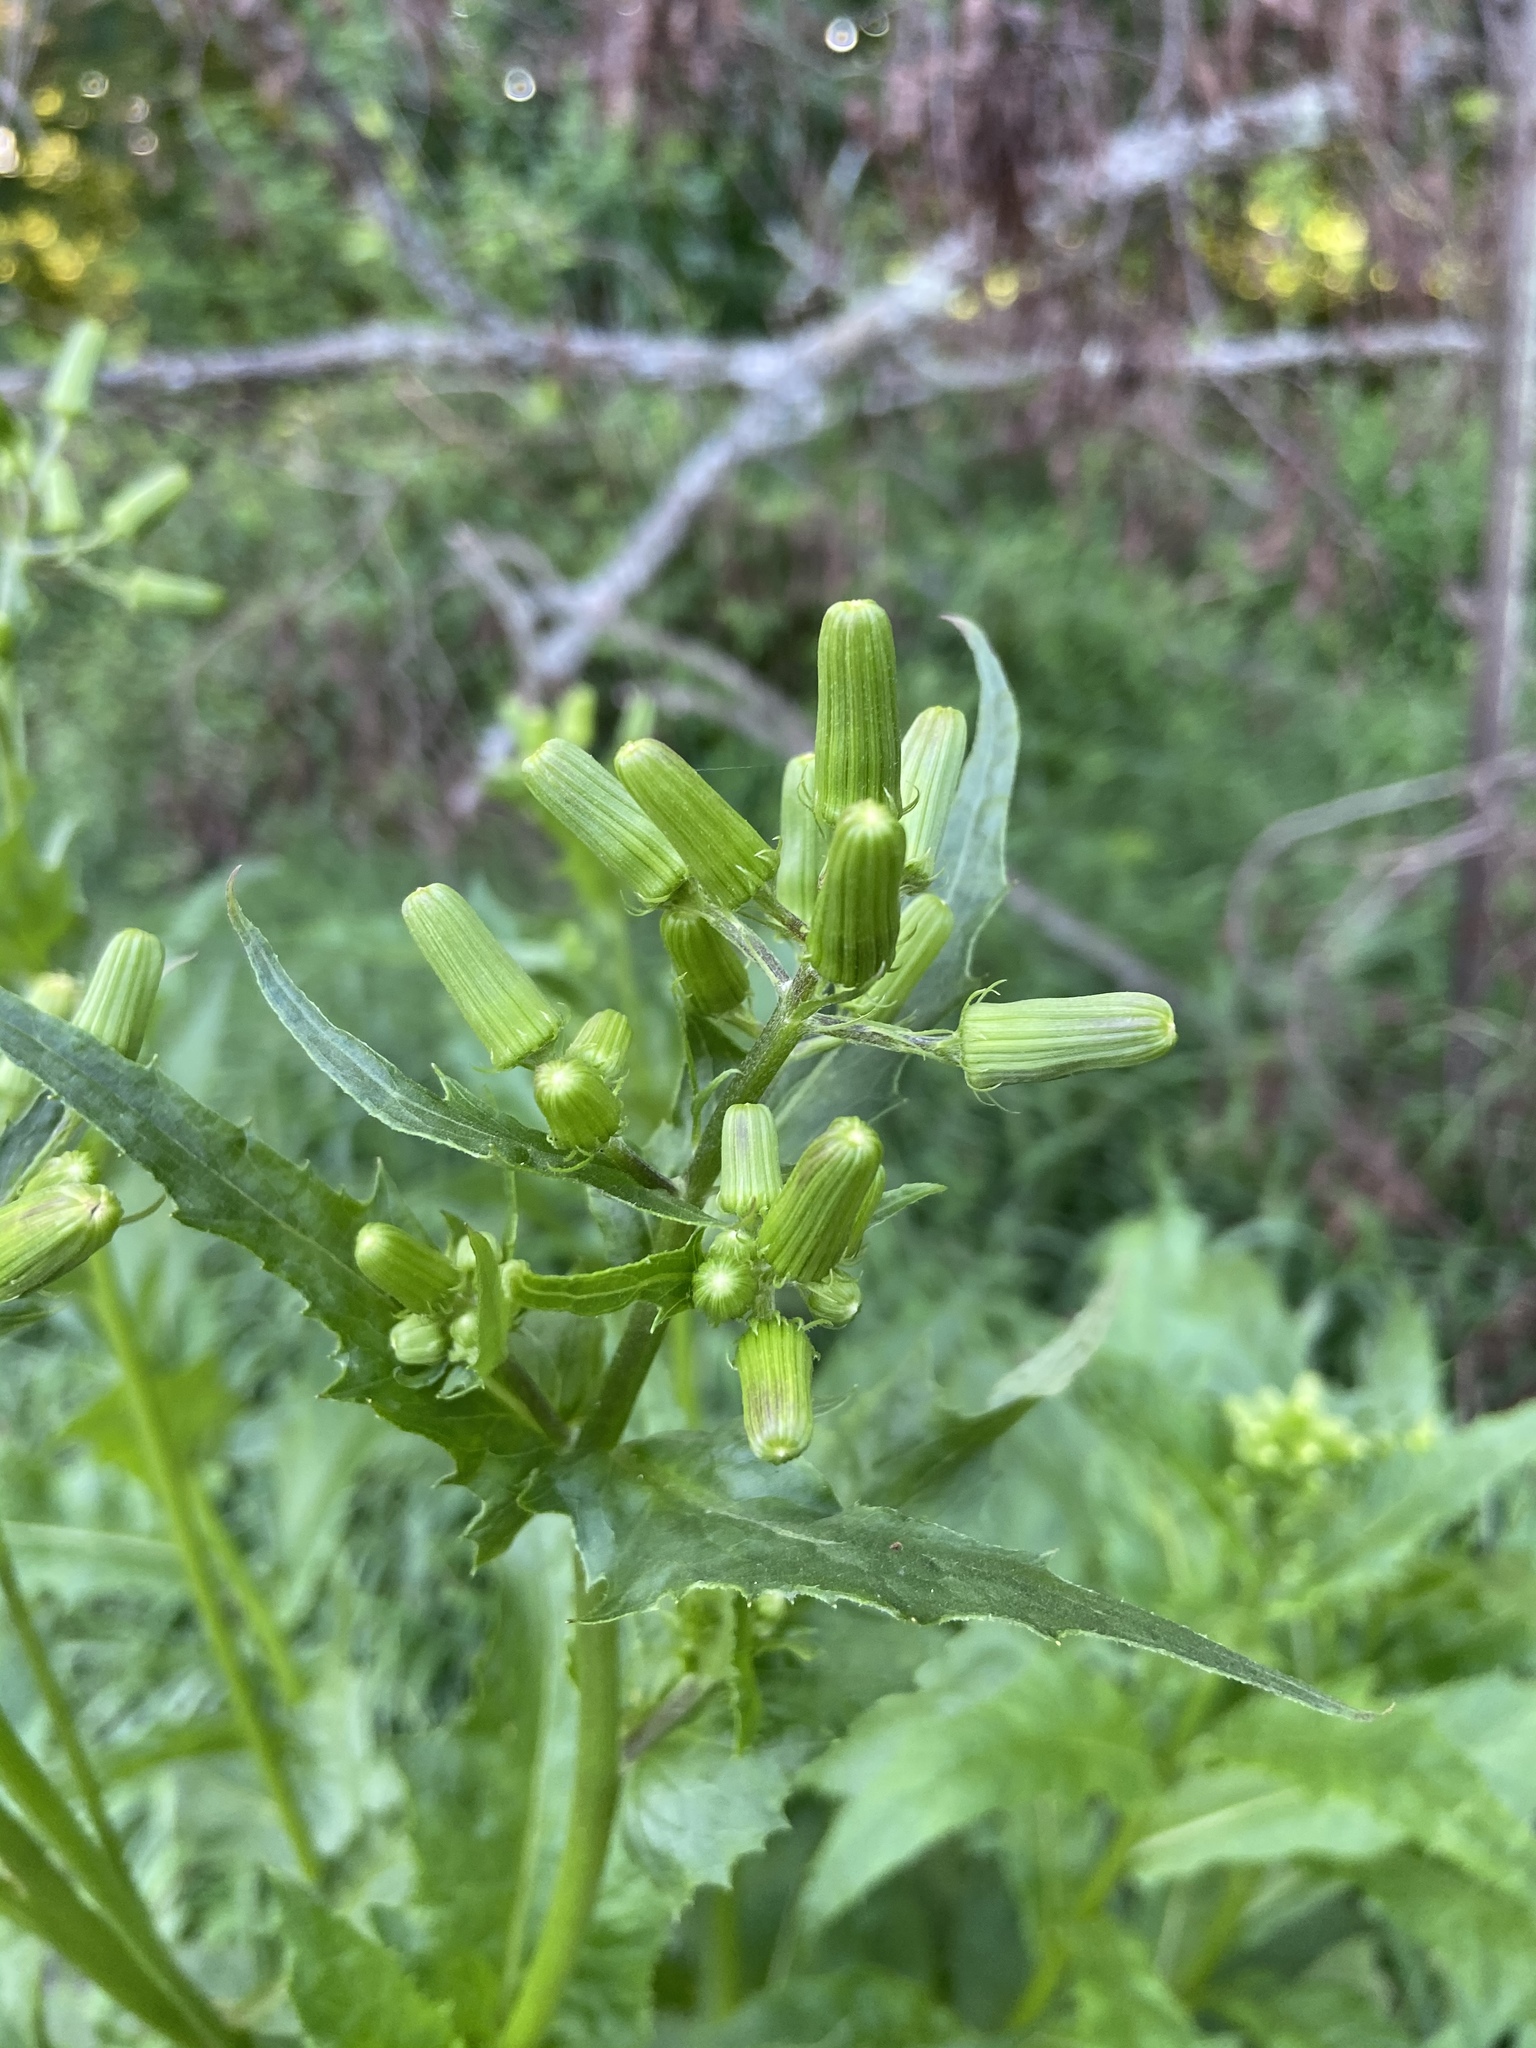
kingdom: Plantae
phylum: Tracheophyta
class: Magnoliopsida
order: Asterales
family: Asteraceae
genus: Erechtites
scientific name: Erechtites hieraciifolius
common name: American burnweed
